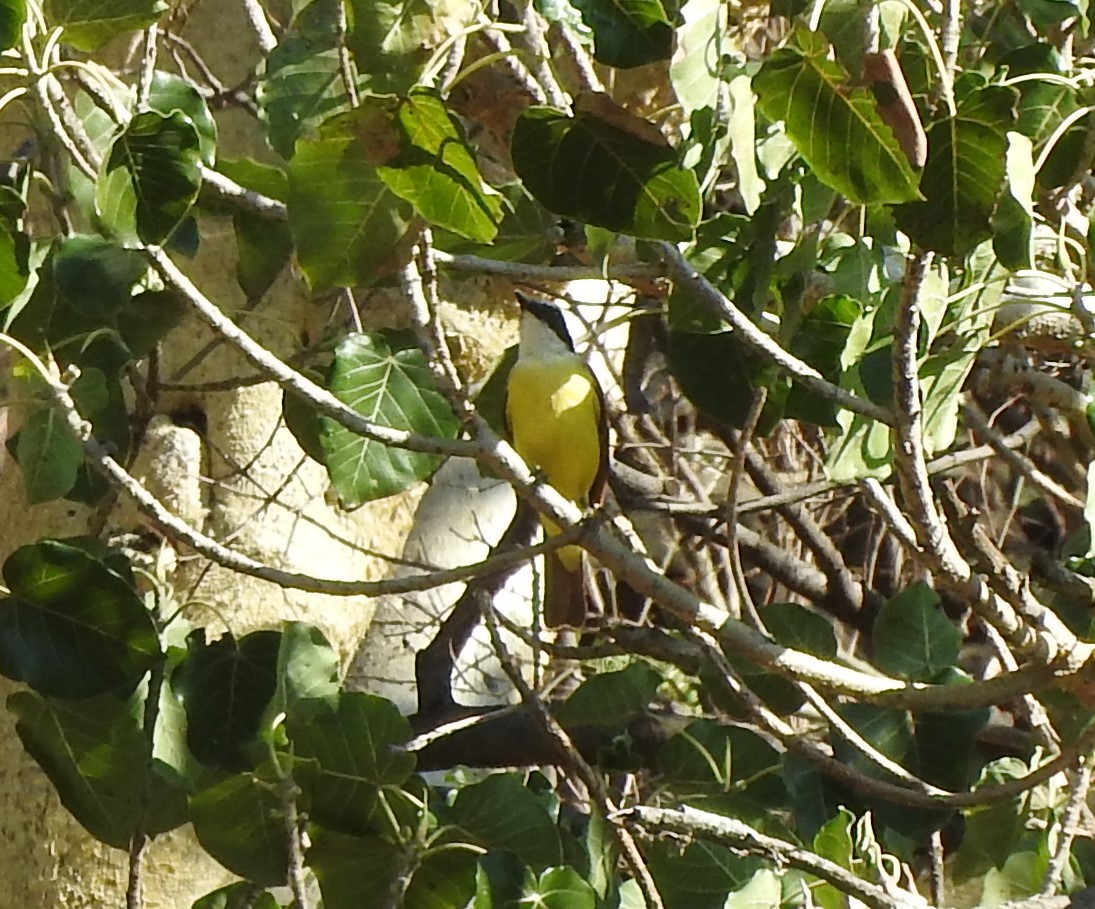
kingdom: Animalia
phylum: Chordata
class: Aves
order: Passeriformes
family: Tyrannidae
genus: Pitangus
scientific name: Pitangus sulphuratus
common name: Great kiskadee
